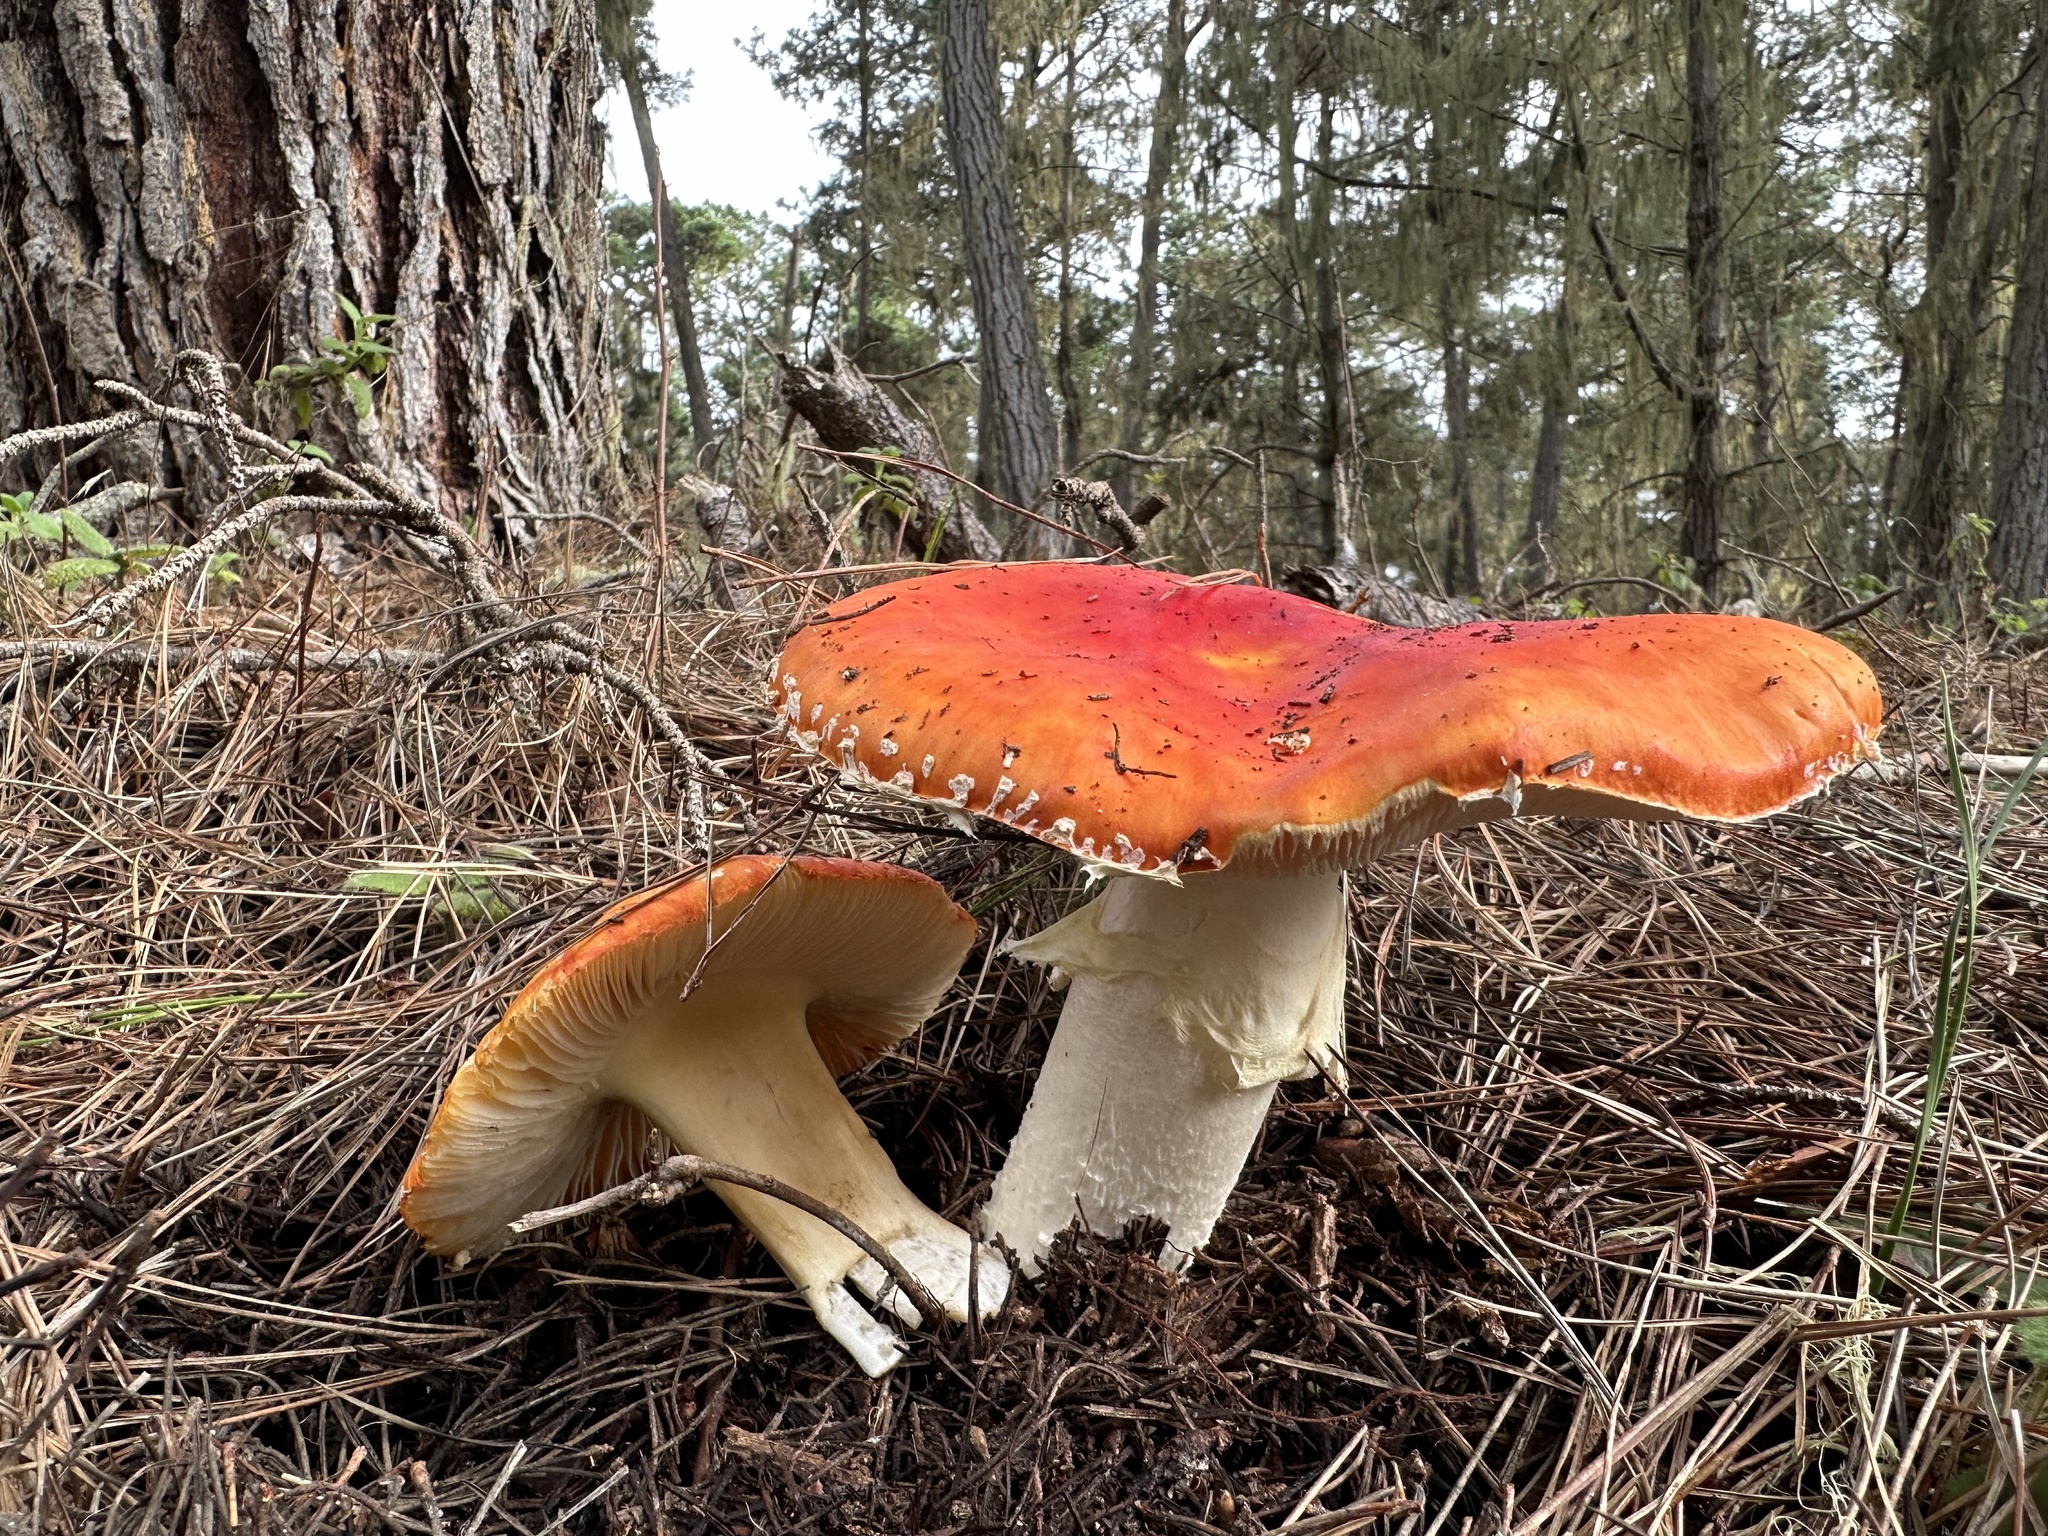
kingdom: Fungi
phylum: Basidiomycota
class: Agaricomycetes
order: Agaricales
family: Amanitaceae
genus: Amanita
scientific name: Amanita muscaria
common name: Fly agaric
